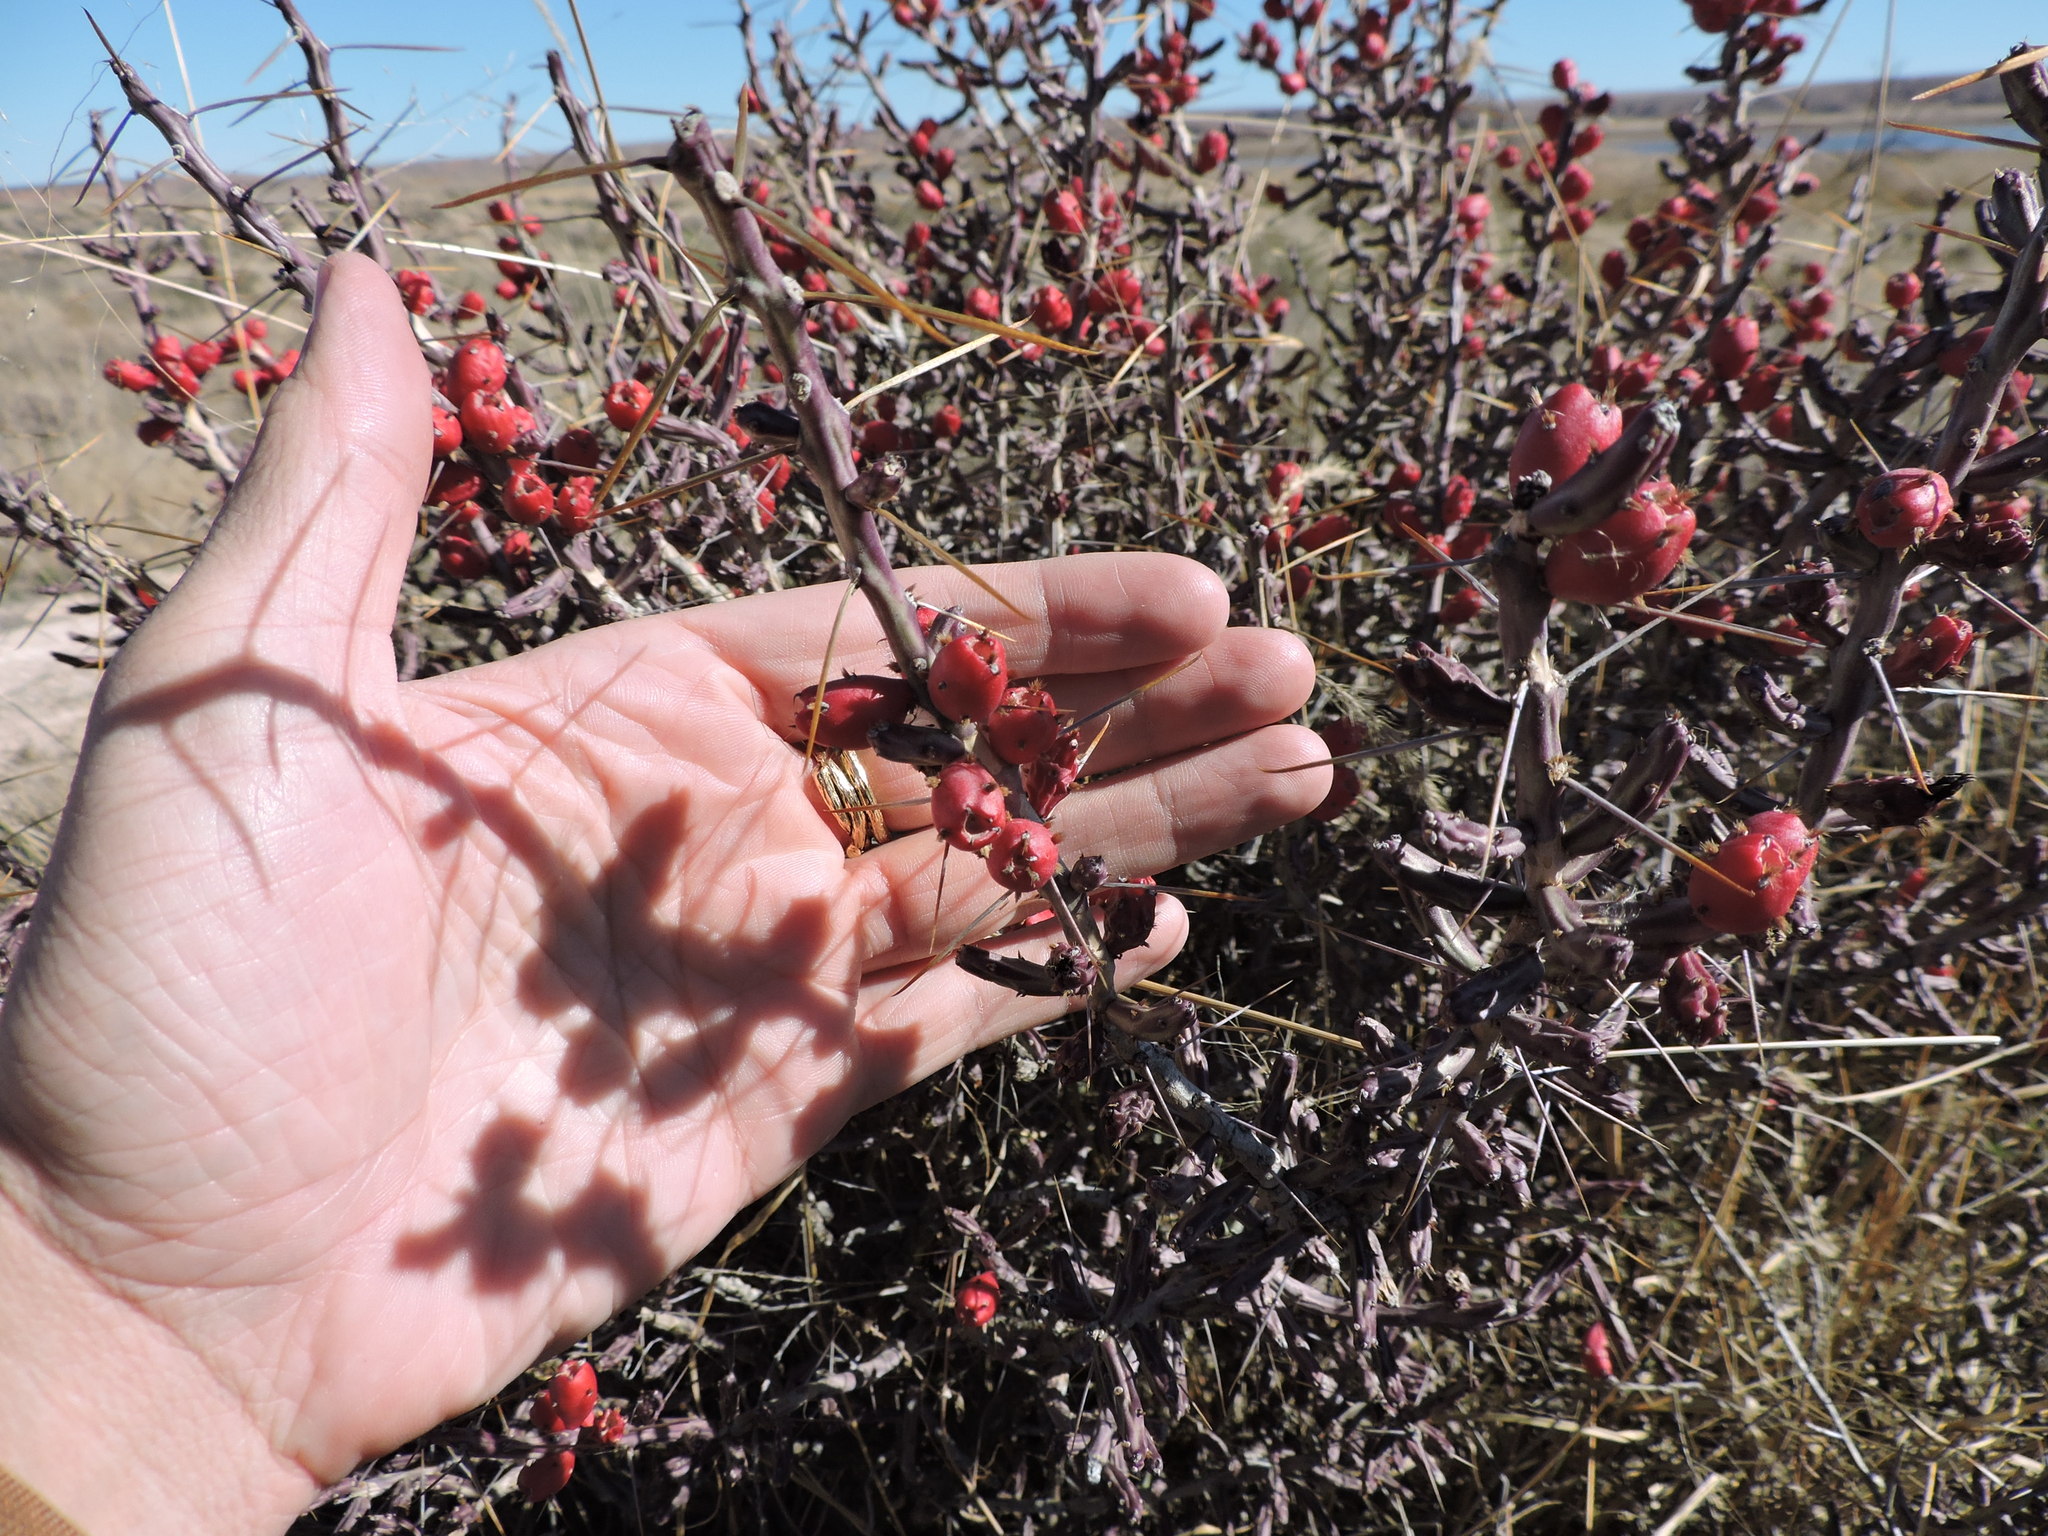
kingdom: Plantae
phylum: Tracheophyta
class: Magnoliopsida
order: Caryophyllales
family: Cactaceae
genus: Cylindropuntia
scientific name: Cylindropuntia leptocaulis
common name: Christmas cactus
